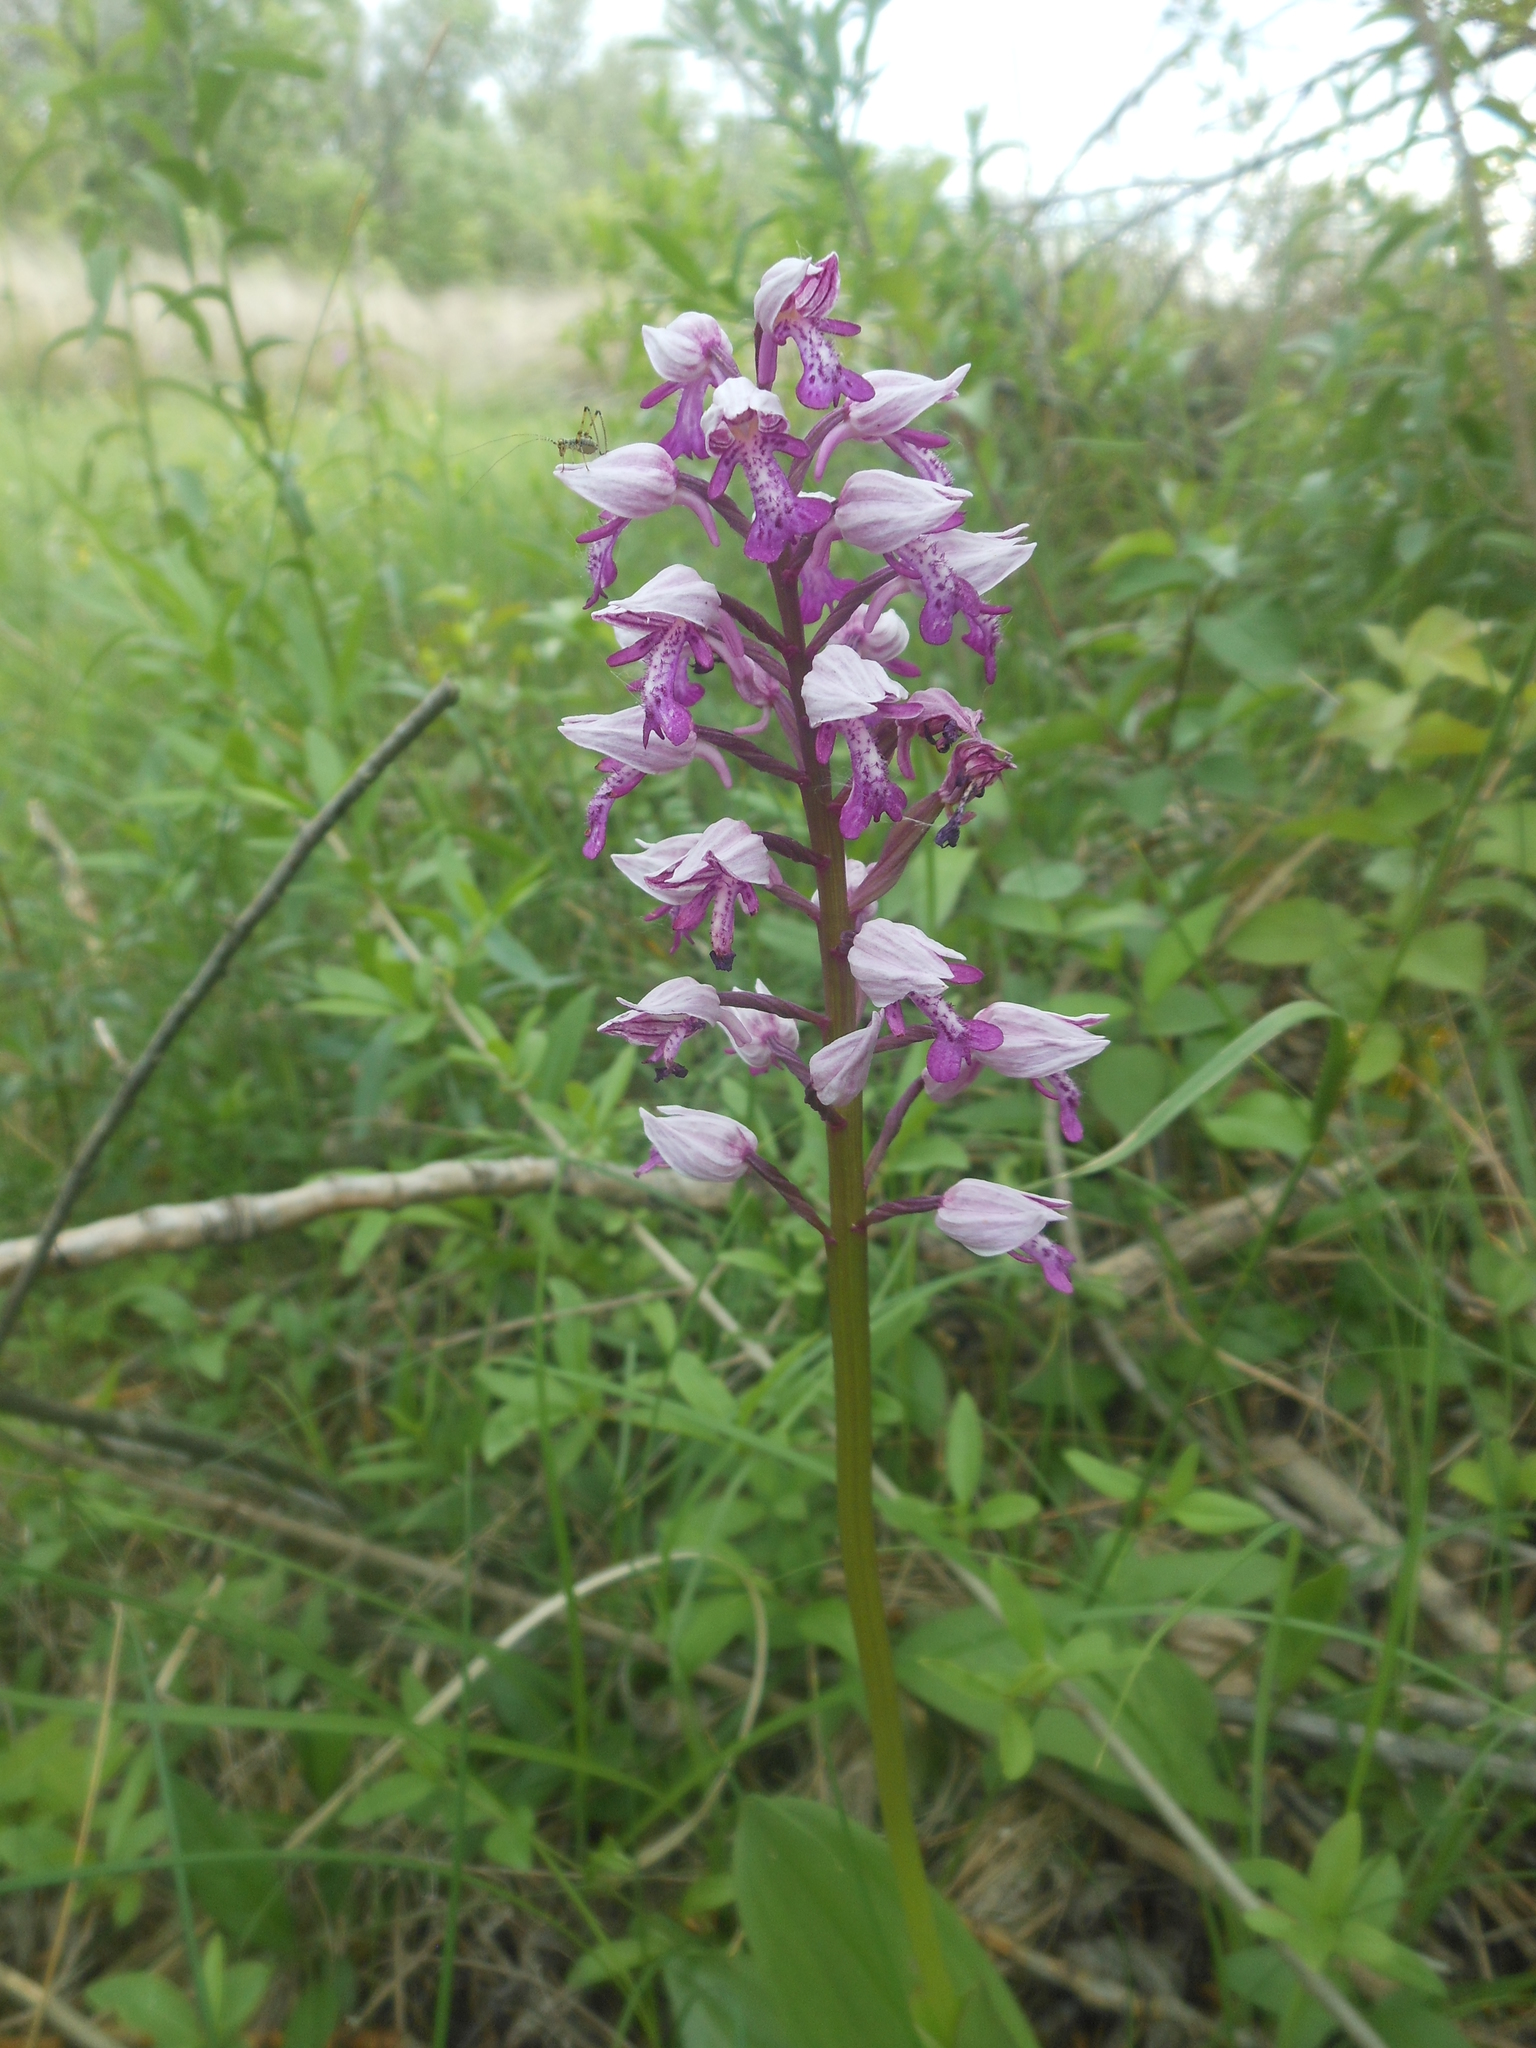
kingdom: Plantae
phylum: Tracheophyta
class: Liliopsida
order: Asparagales
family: Orchidaceae
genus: Orchis
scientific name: Orchis militaris
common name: Military orchid
